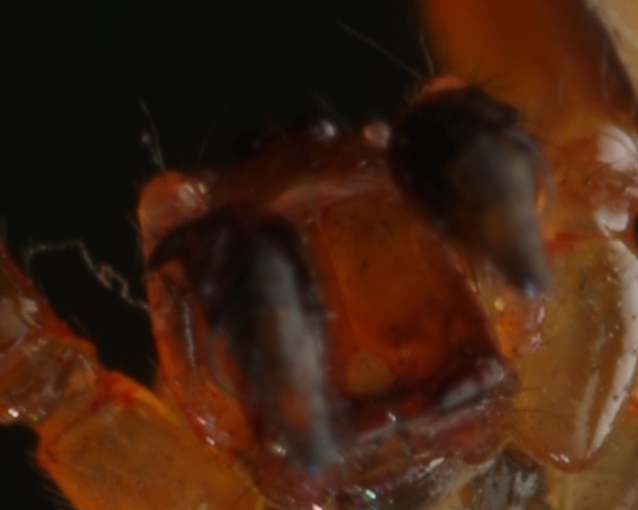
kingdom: Animalia
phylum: Arthropoda
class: Arachnida
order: Araneae
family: Theridiidae
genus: Anelosimus
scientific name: Anelosimus vittatus
